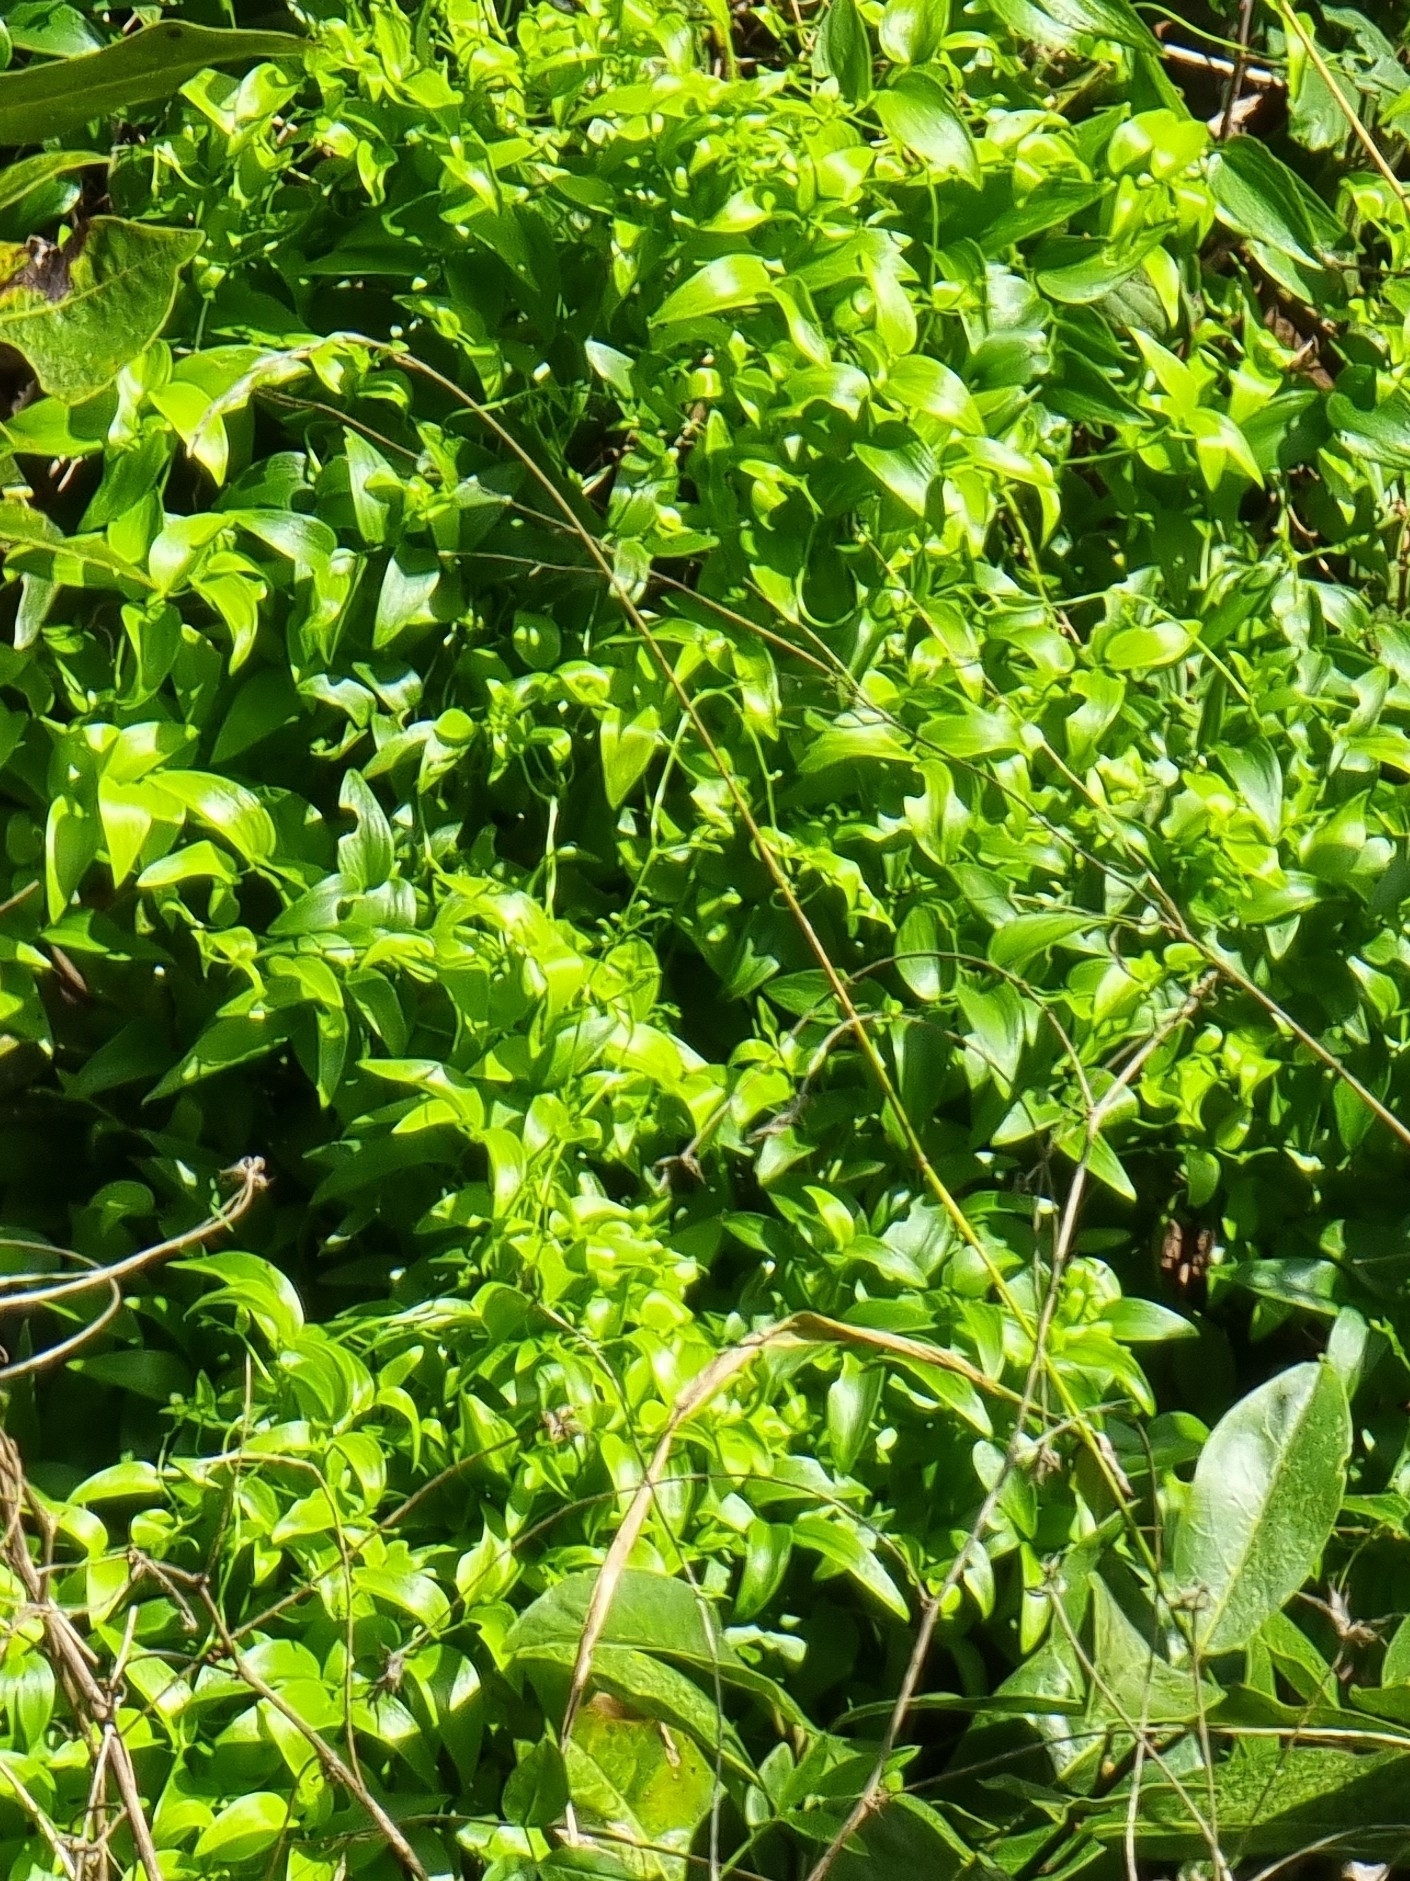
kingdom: Plantae
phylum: Tracheophyta
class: Liliopsida
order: Asparagales
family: Asparagaceae
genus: Asparagus
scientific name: Asparagus asparagoides
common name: African asparagus fern
